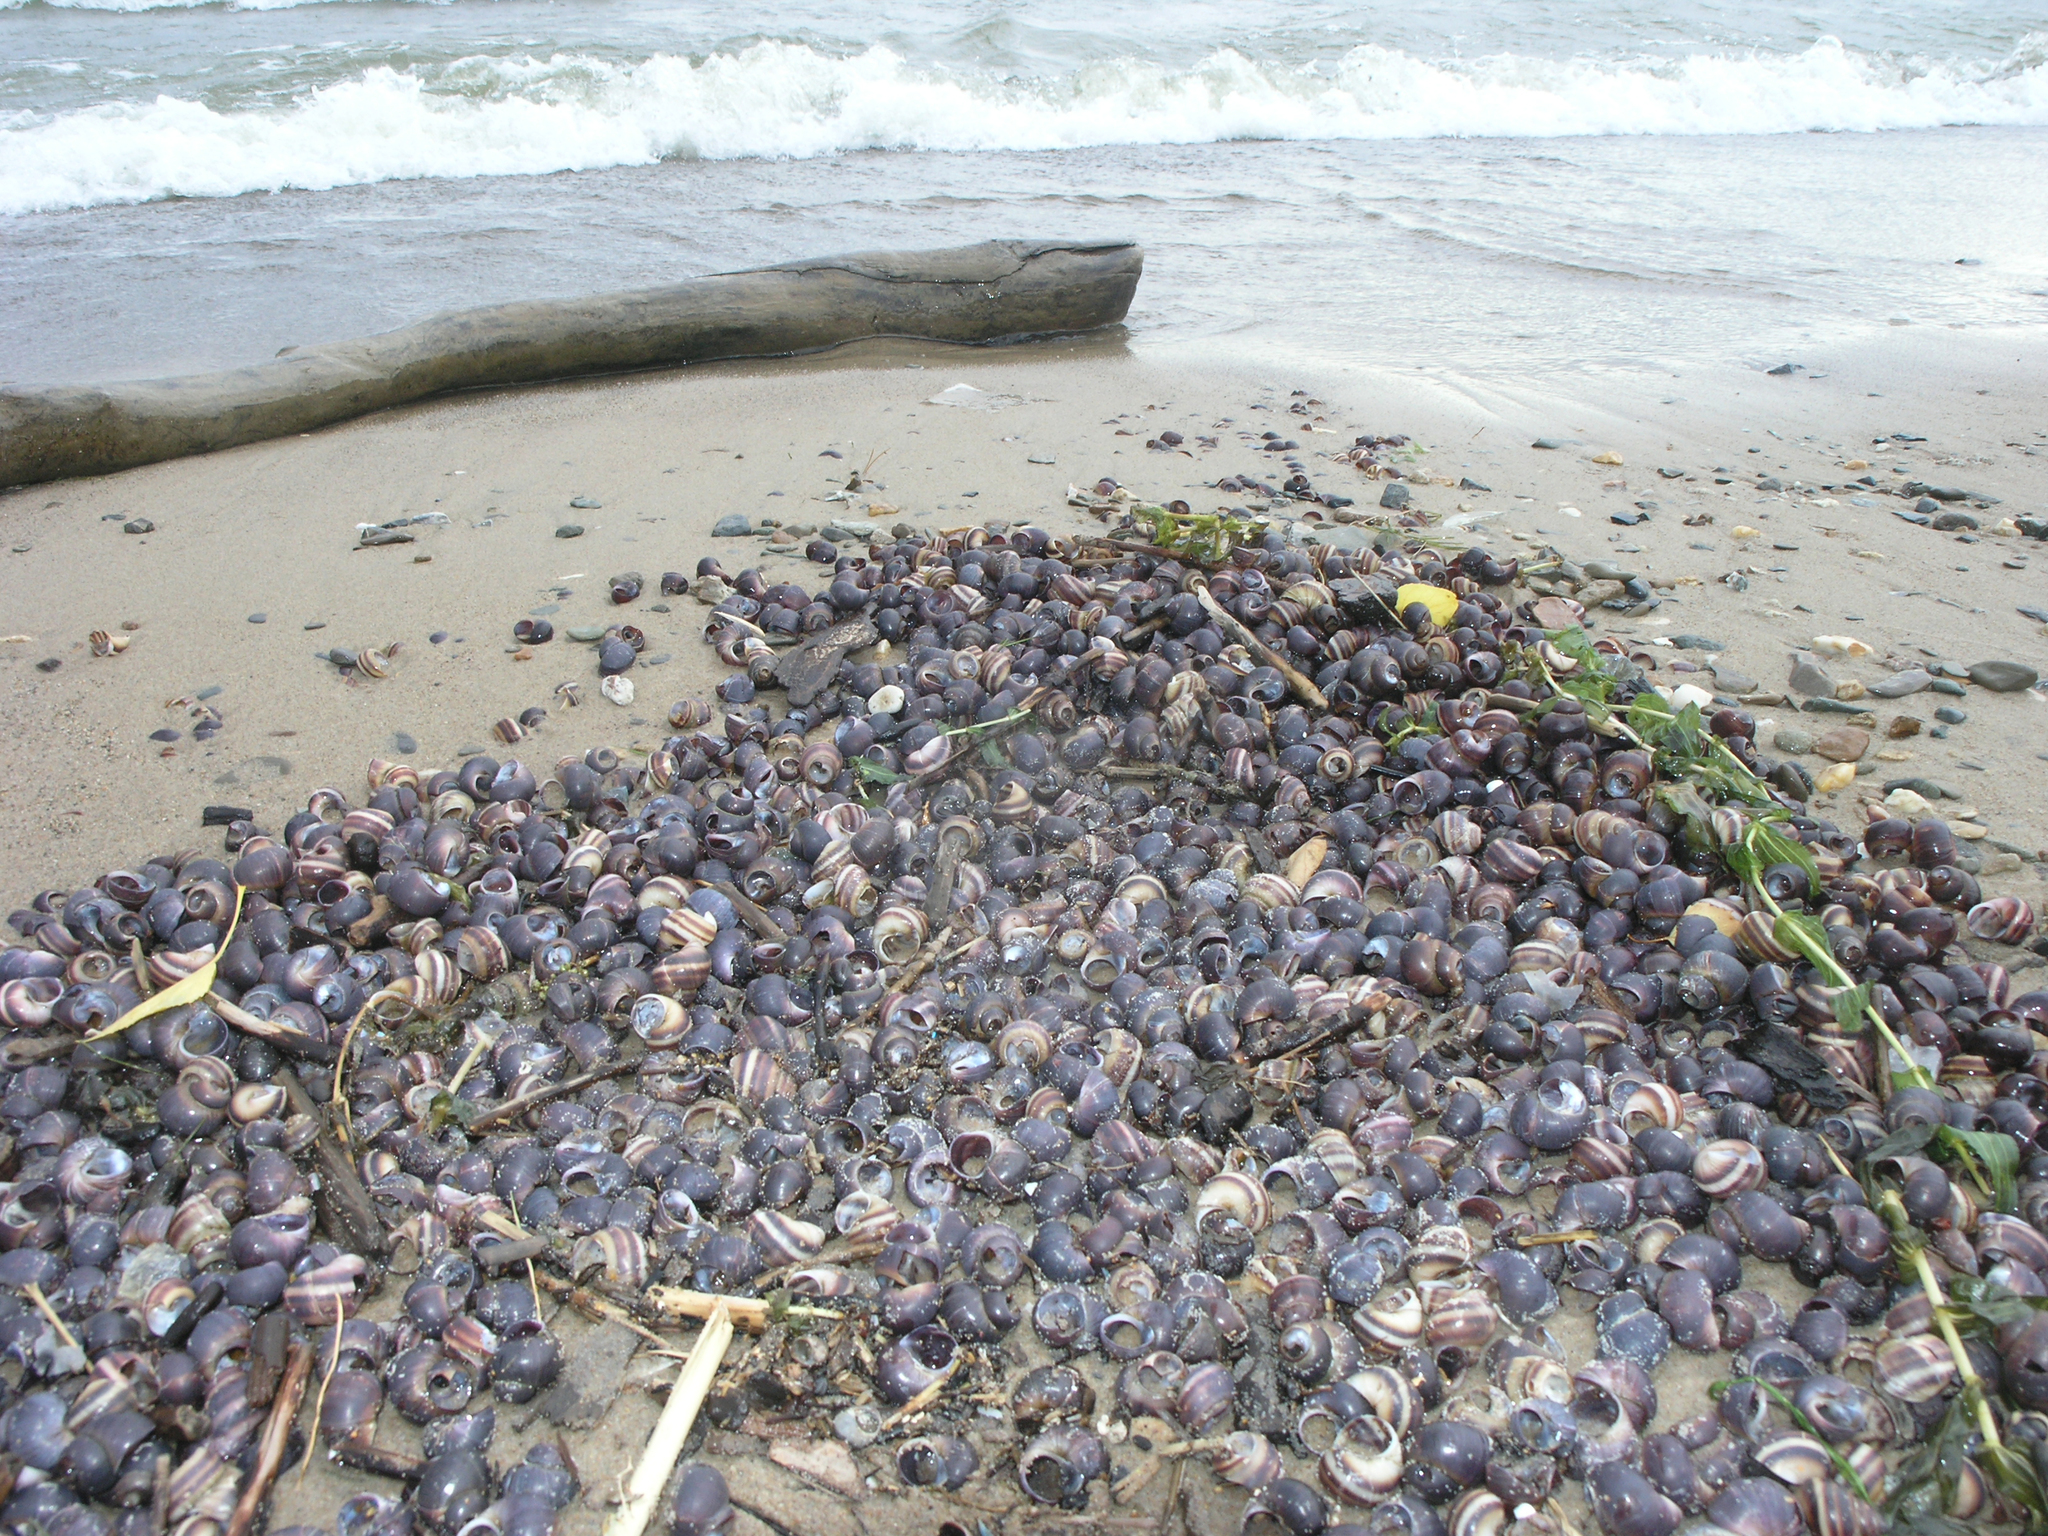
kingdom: Animalia
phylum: Mollusca
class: Gastropoda
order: Architaenioglossa
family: Viviparidae
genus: Viviparus
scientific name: Viviparus viviparus
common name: River snail
